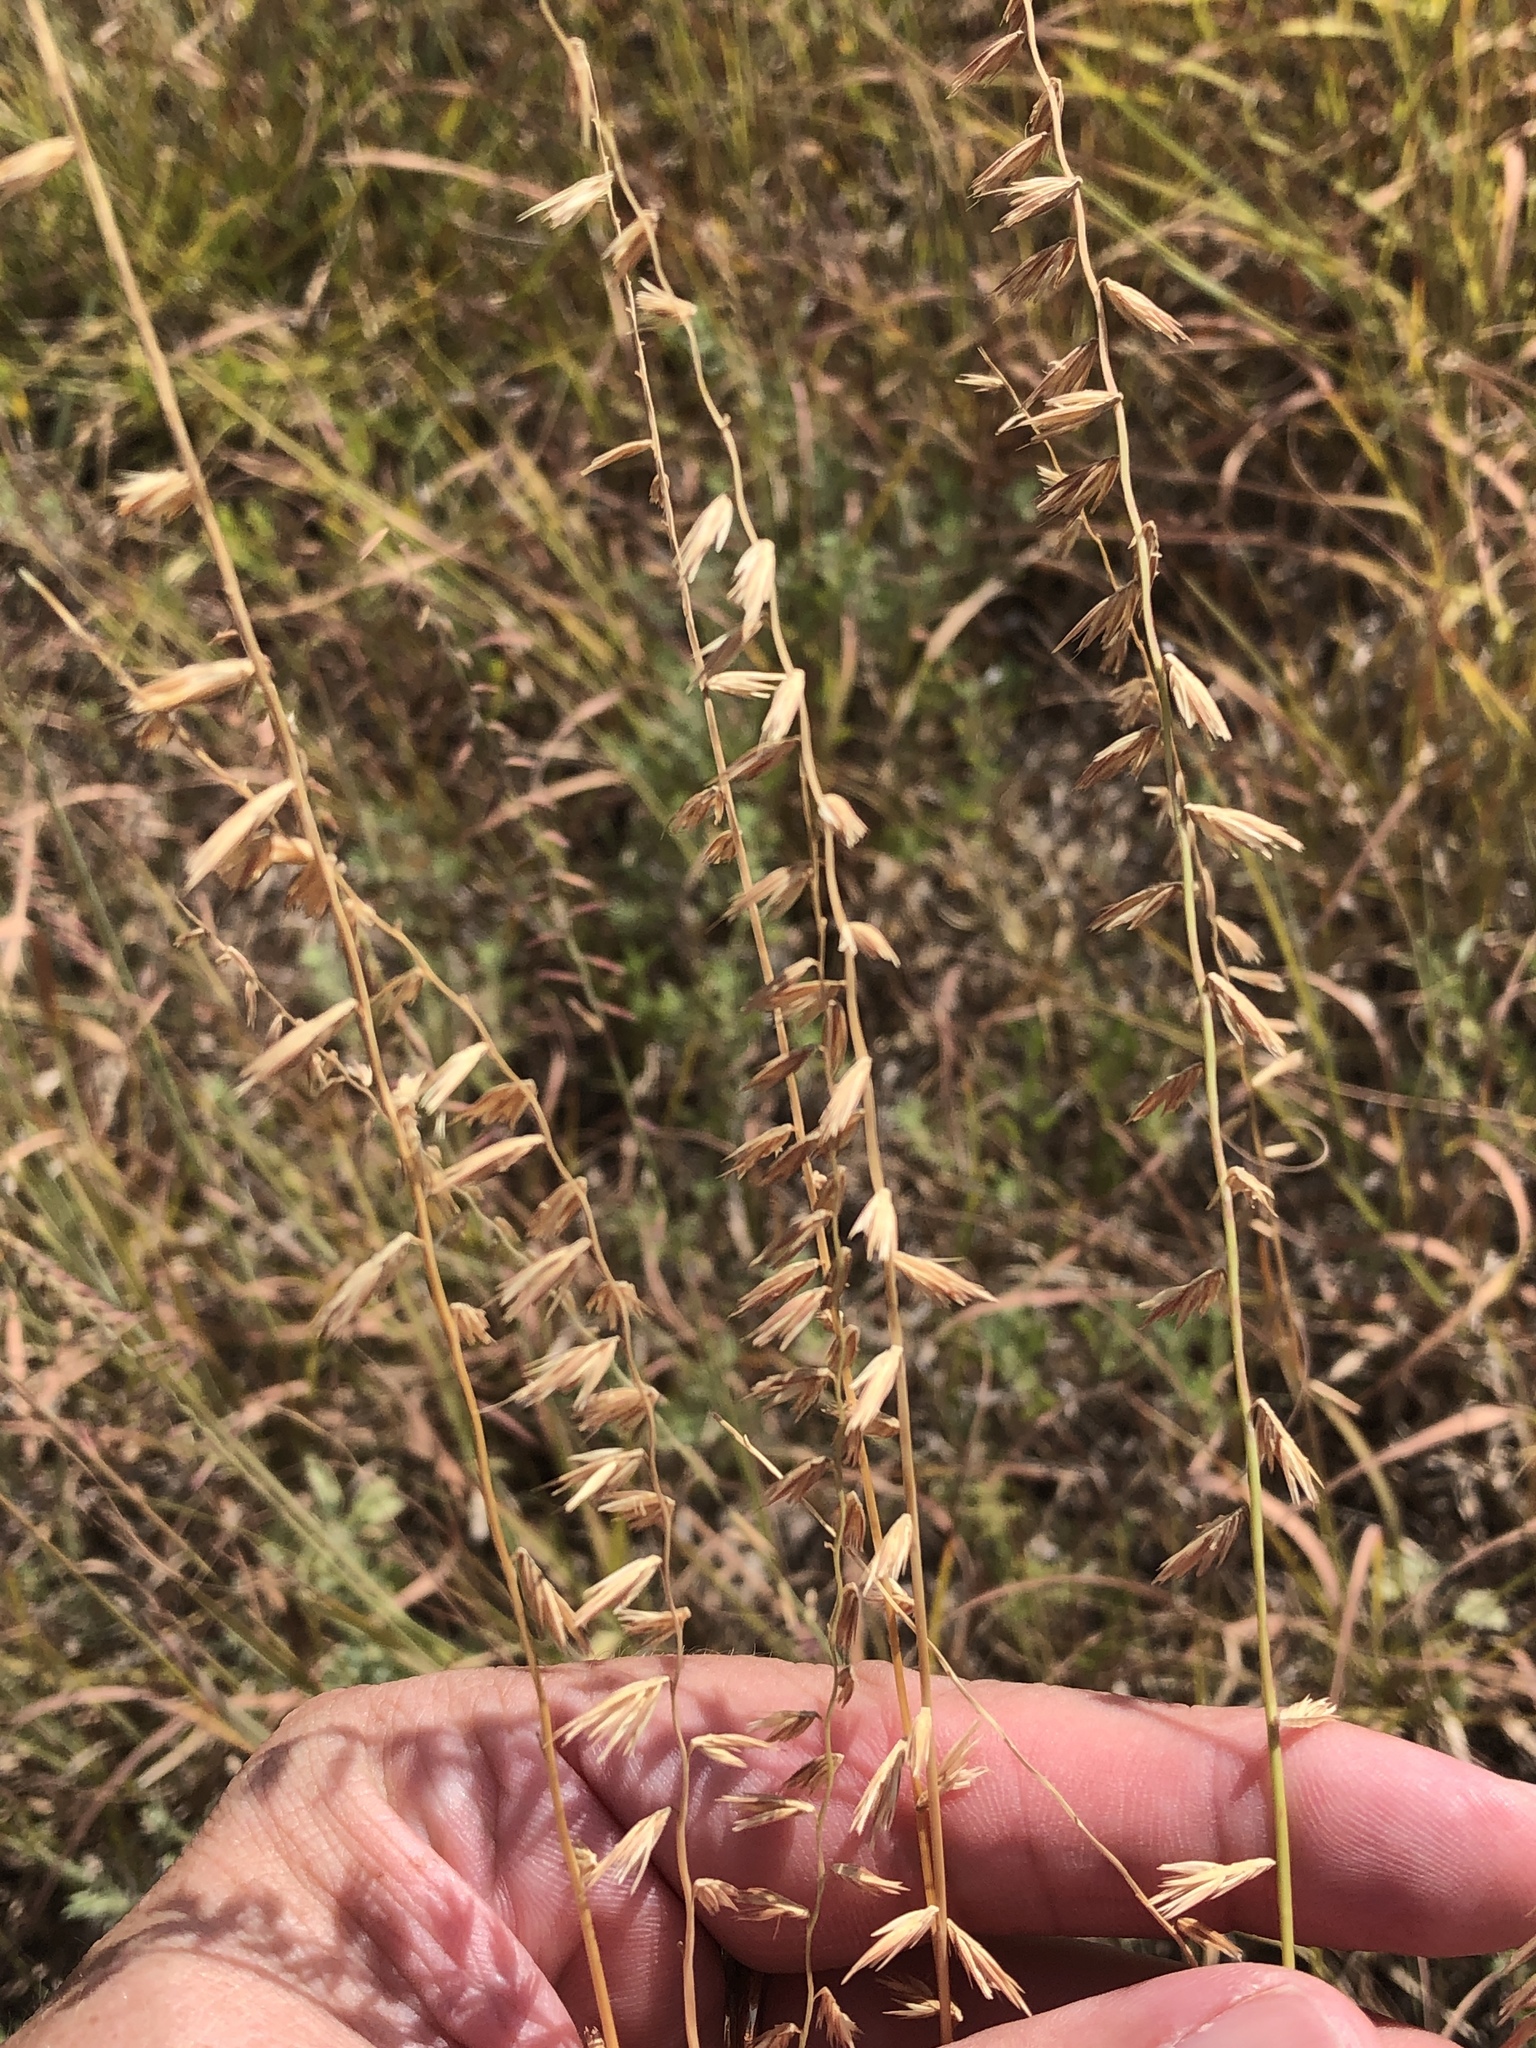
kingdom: Plantae
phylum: Tracheophyta
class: Liliopsida
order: Poales
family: Poaceae
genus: Bouteloua
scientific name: Bouteloua curtipendula
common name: Side-oats grama
